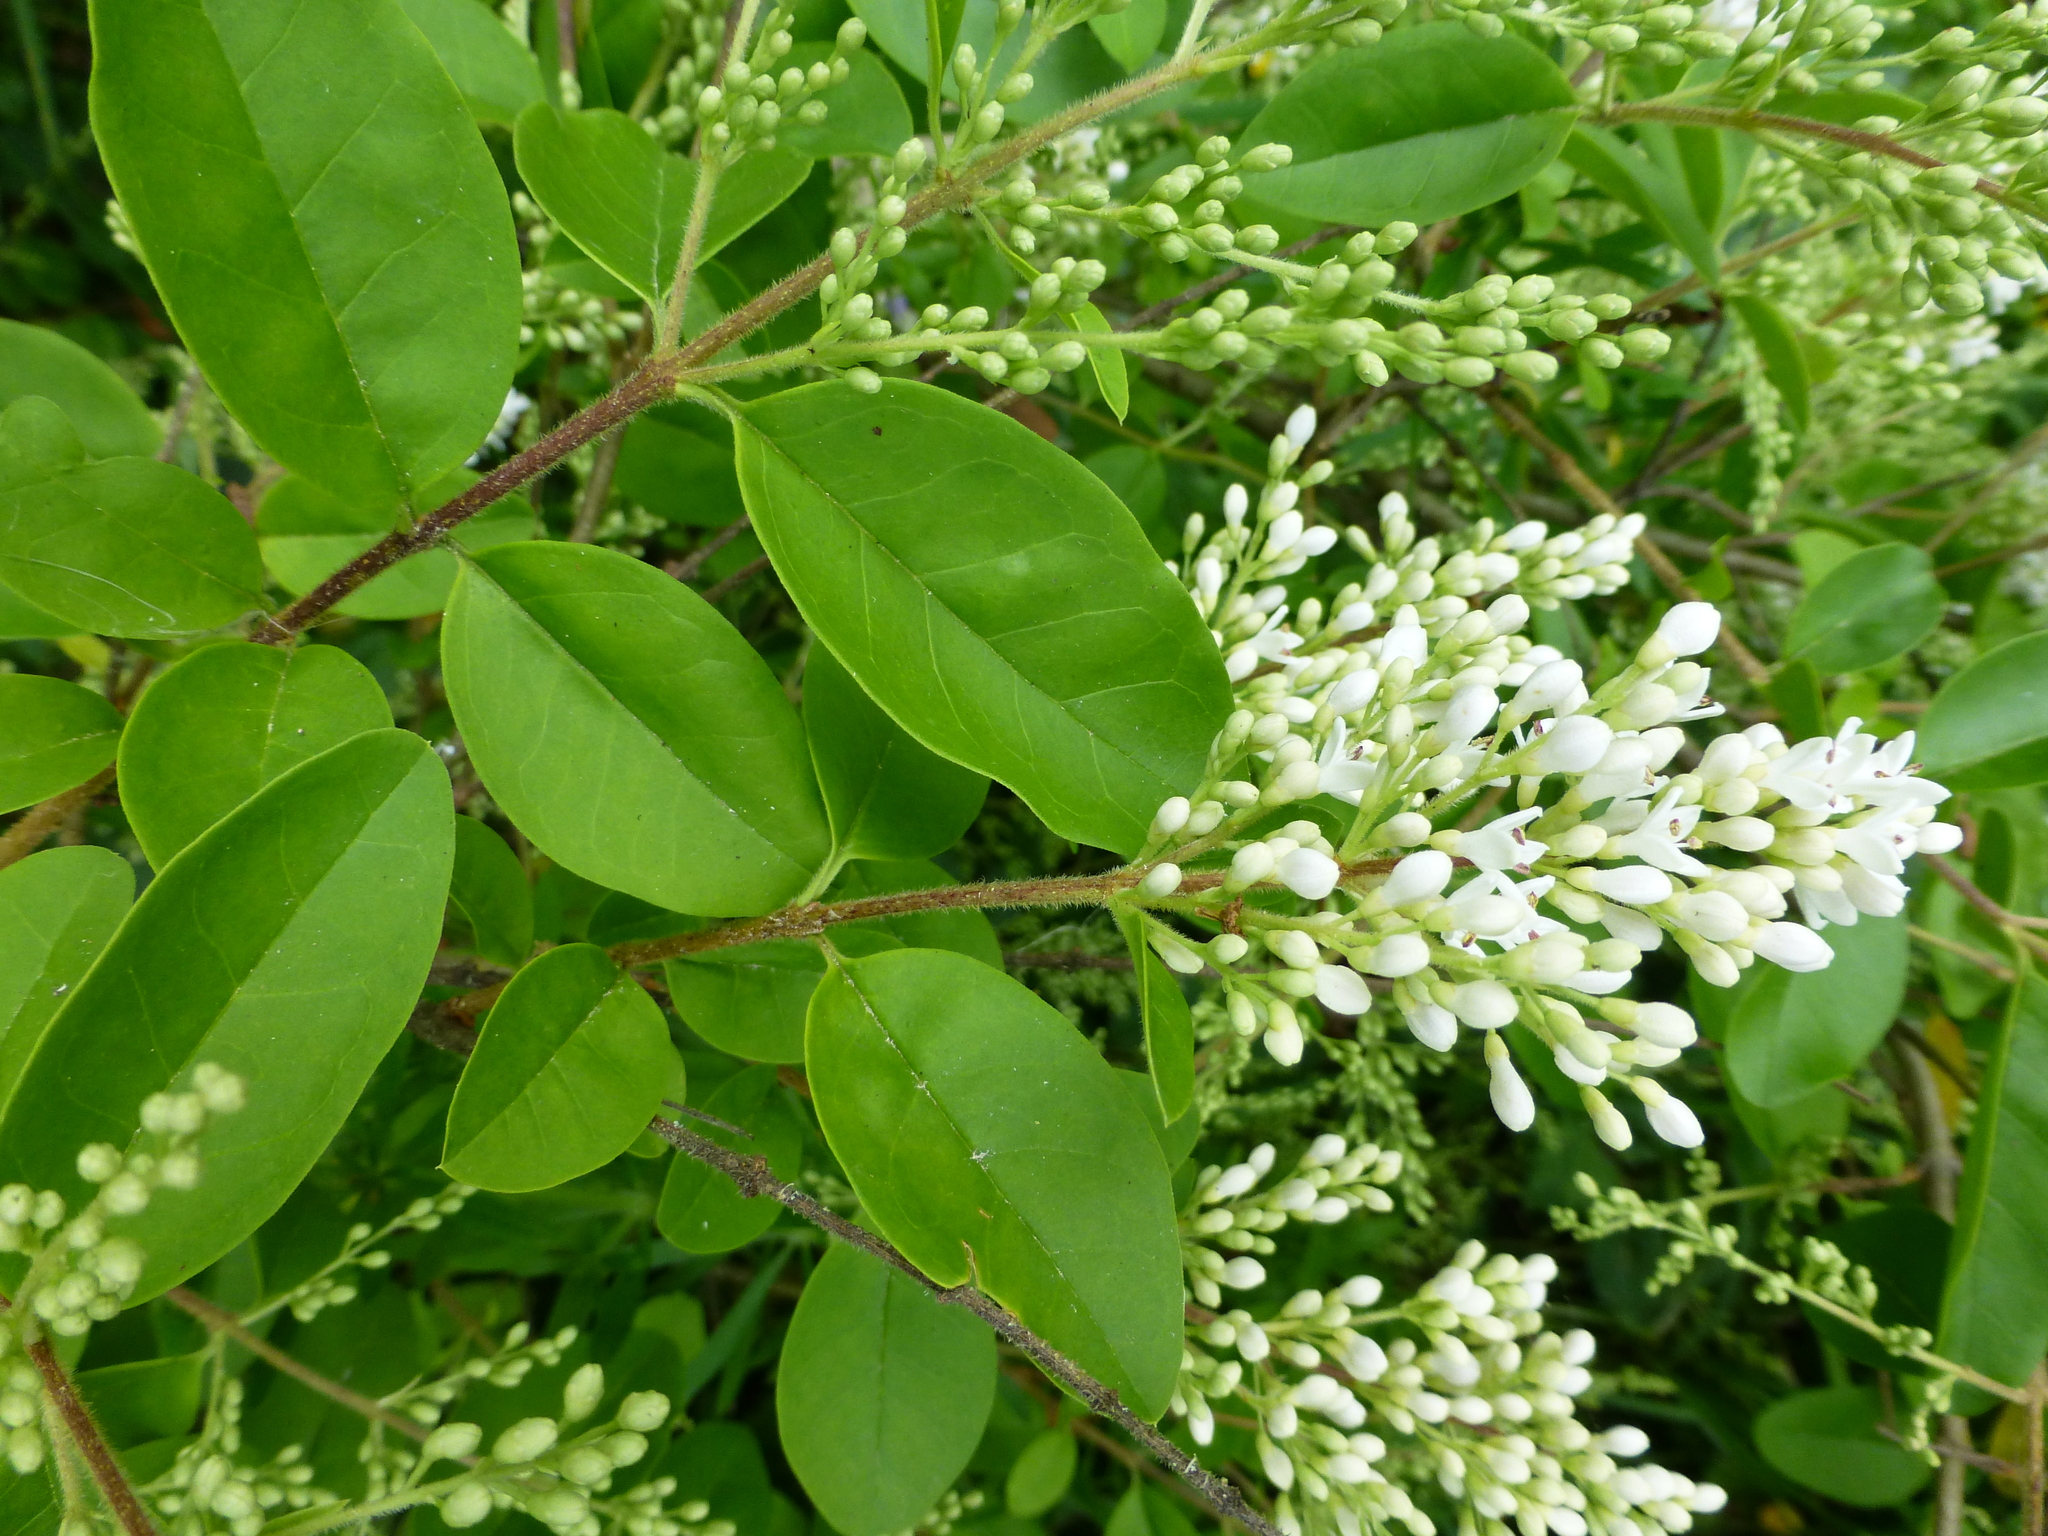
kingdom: Plantae
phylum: Tracheophyta
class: Magnoliopsida
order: Lamiales
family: Oleaceae
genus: Ligustrum
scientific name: Ligustrum sinense
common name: Chinese privet
